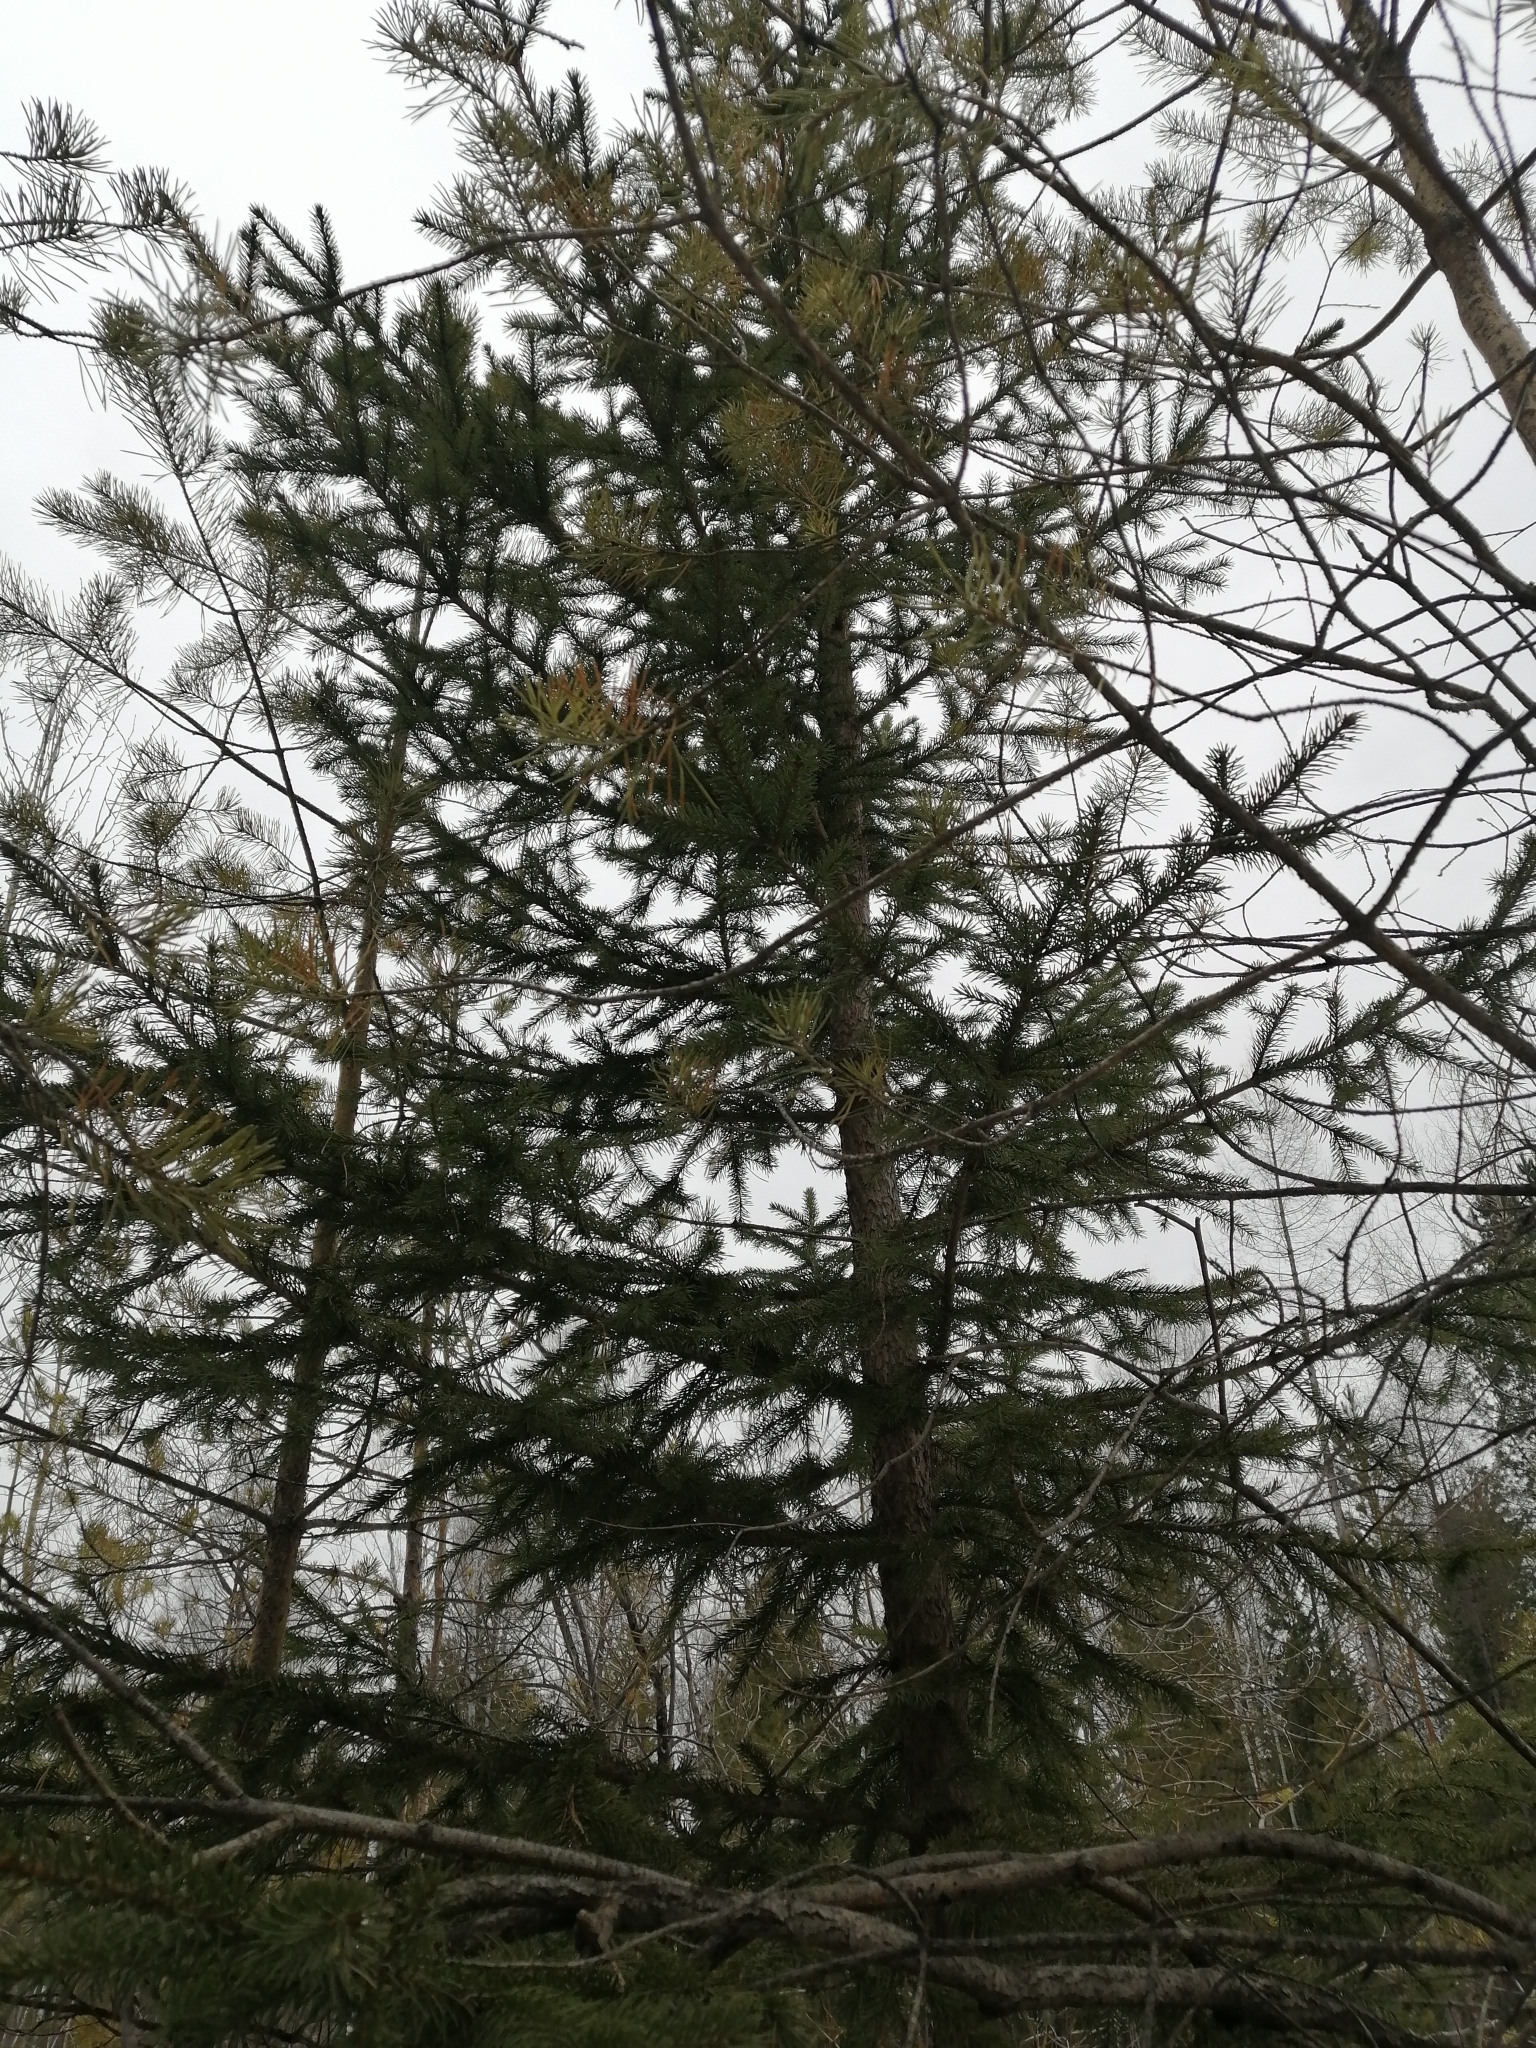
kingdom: Plantae
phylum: Tracheophyta
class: Pinopsida
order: Pinales
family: Pinaceae
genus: Picea
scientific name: Picea obovata
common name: Siberian spruce
